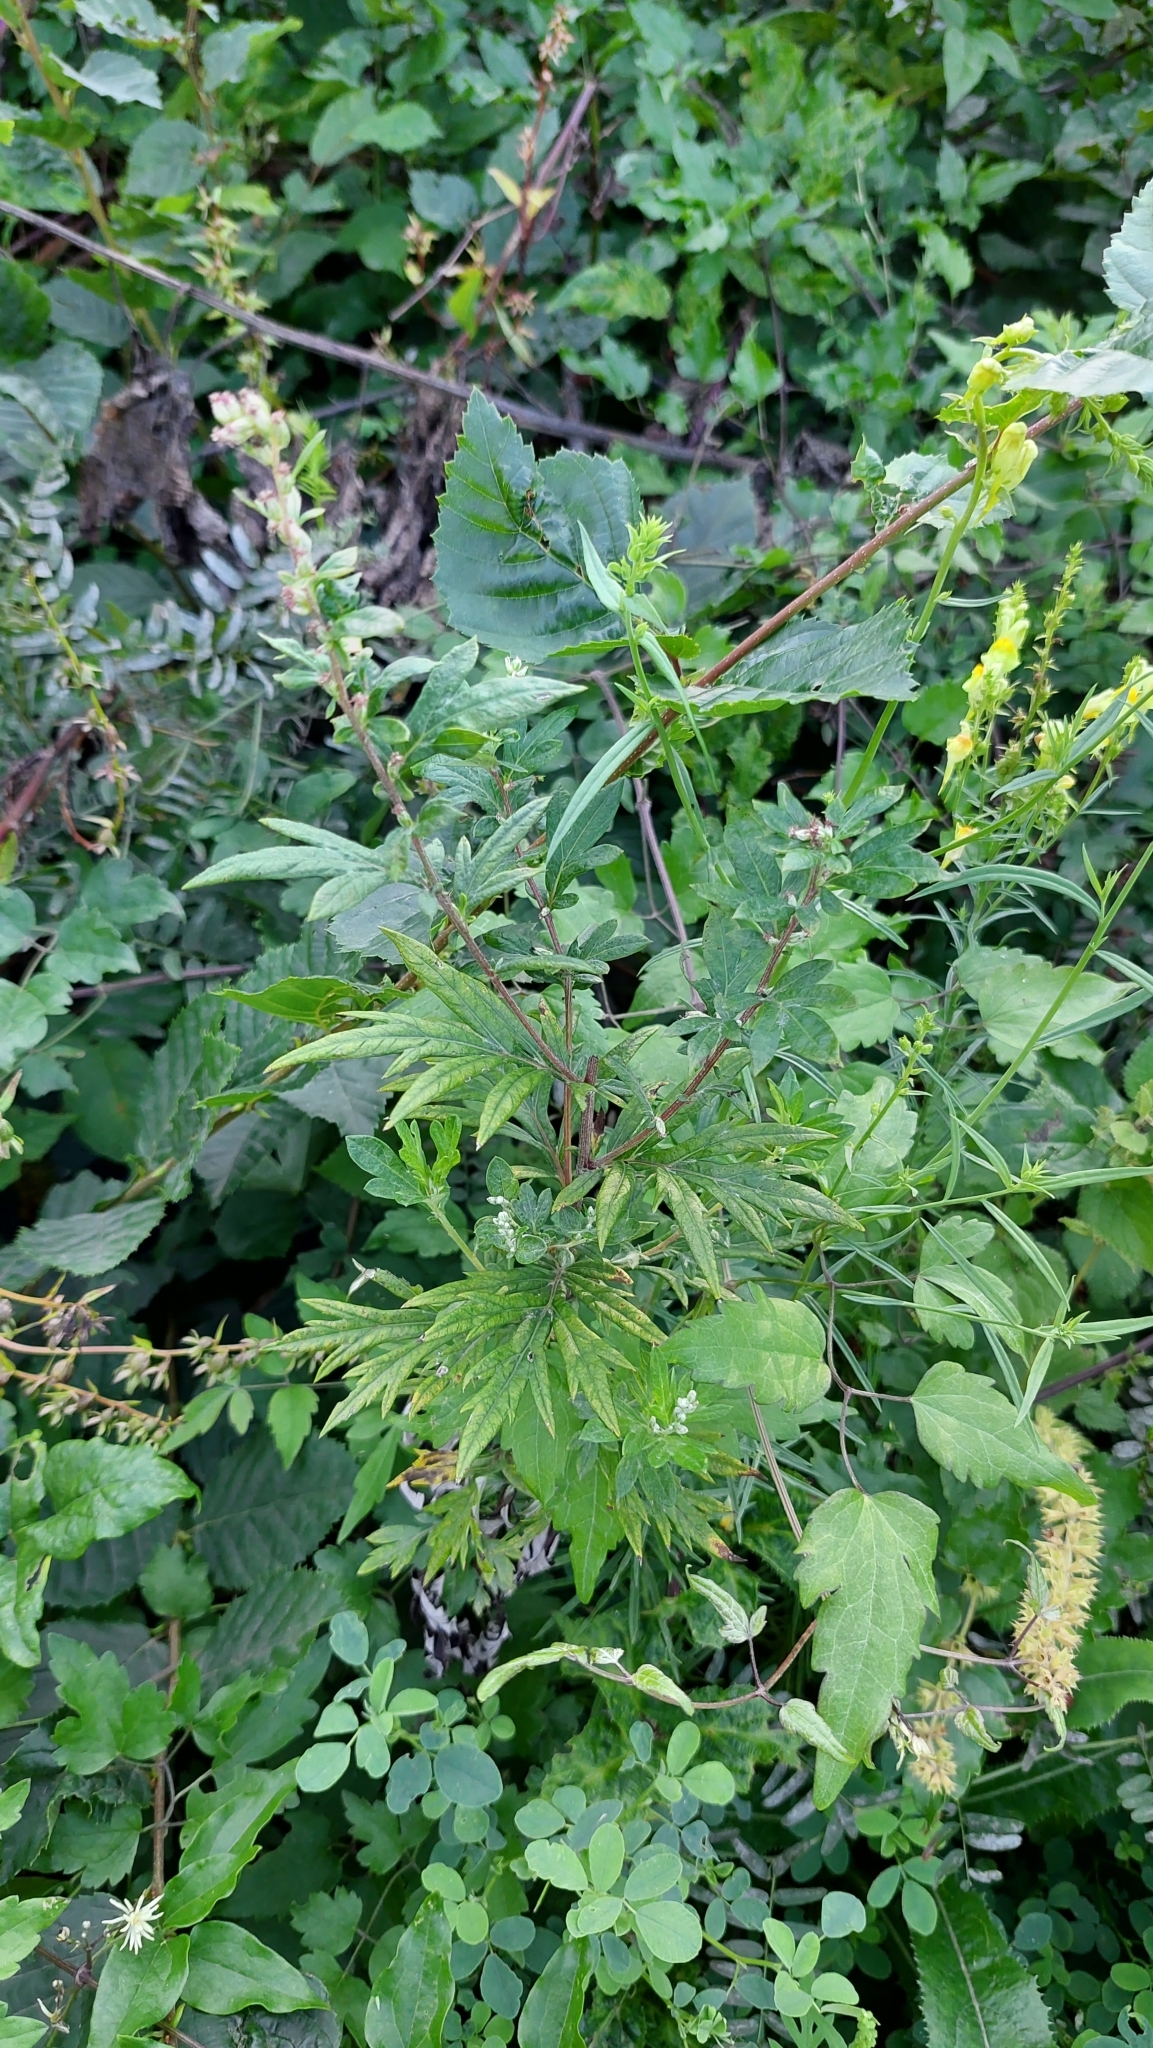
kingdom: Plantae
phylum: Tracheophyta
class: Magnoliopsida
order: Asterales
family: Asteraceae
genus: Artemisia
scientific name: Artemisia vulgaris
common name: Mugwort
